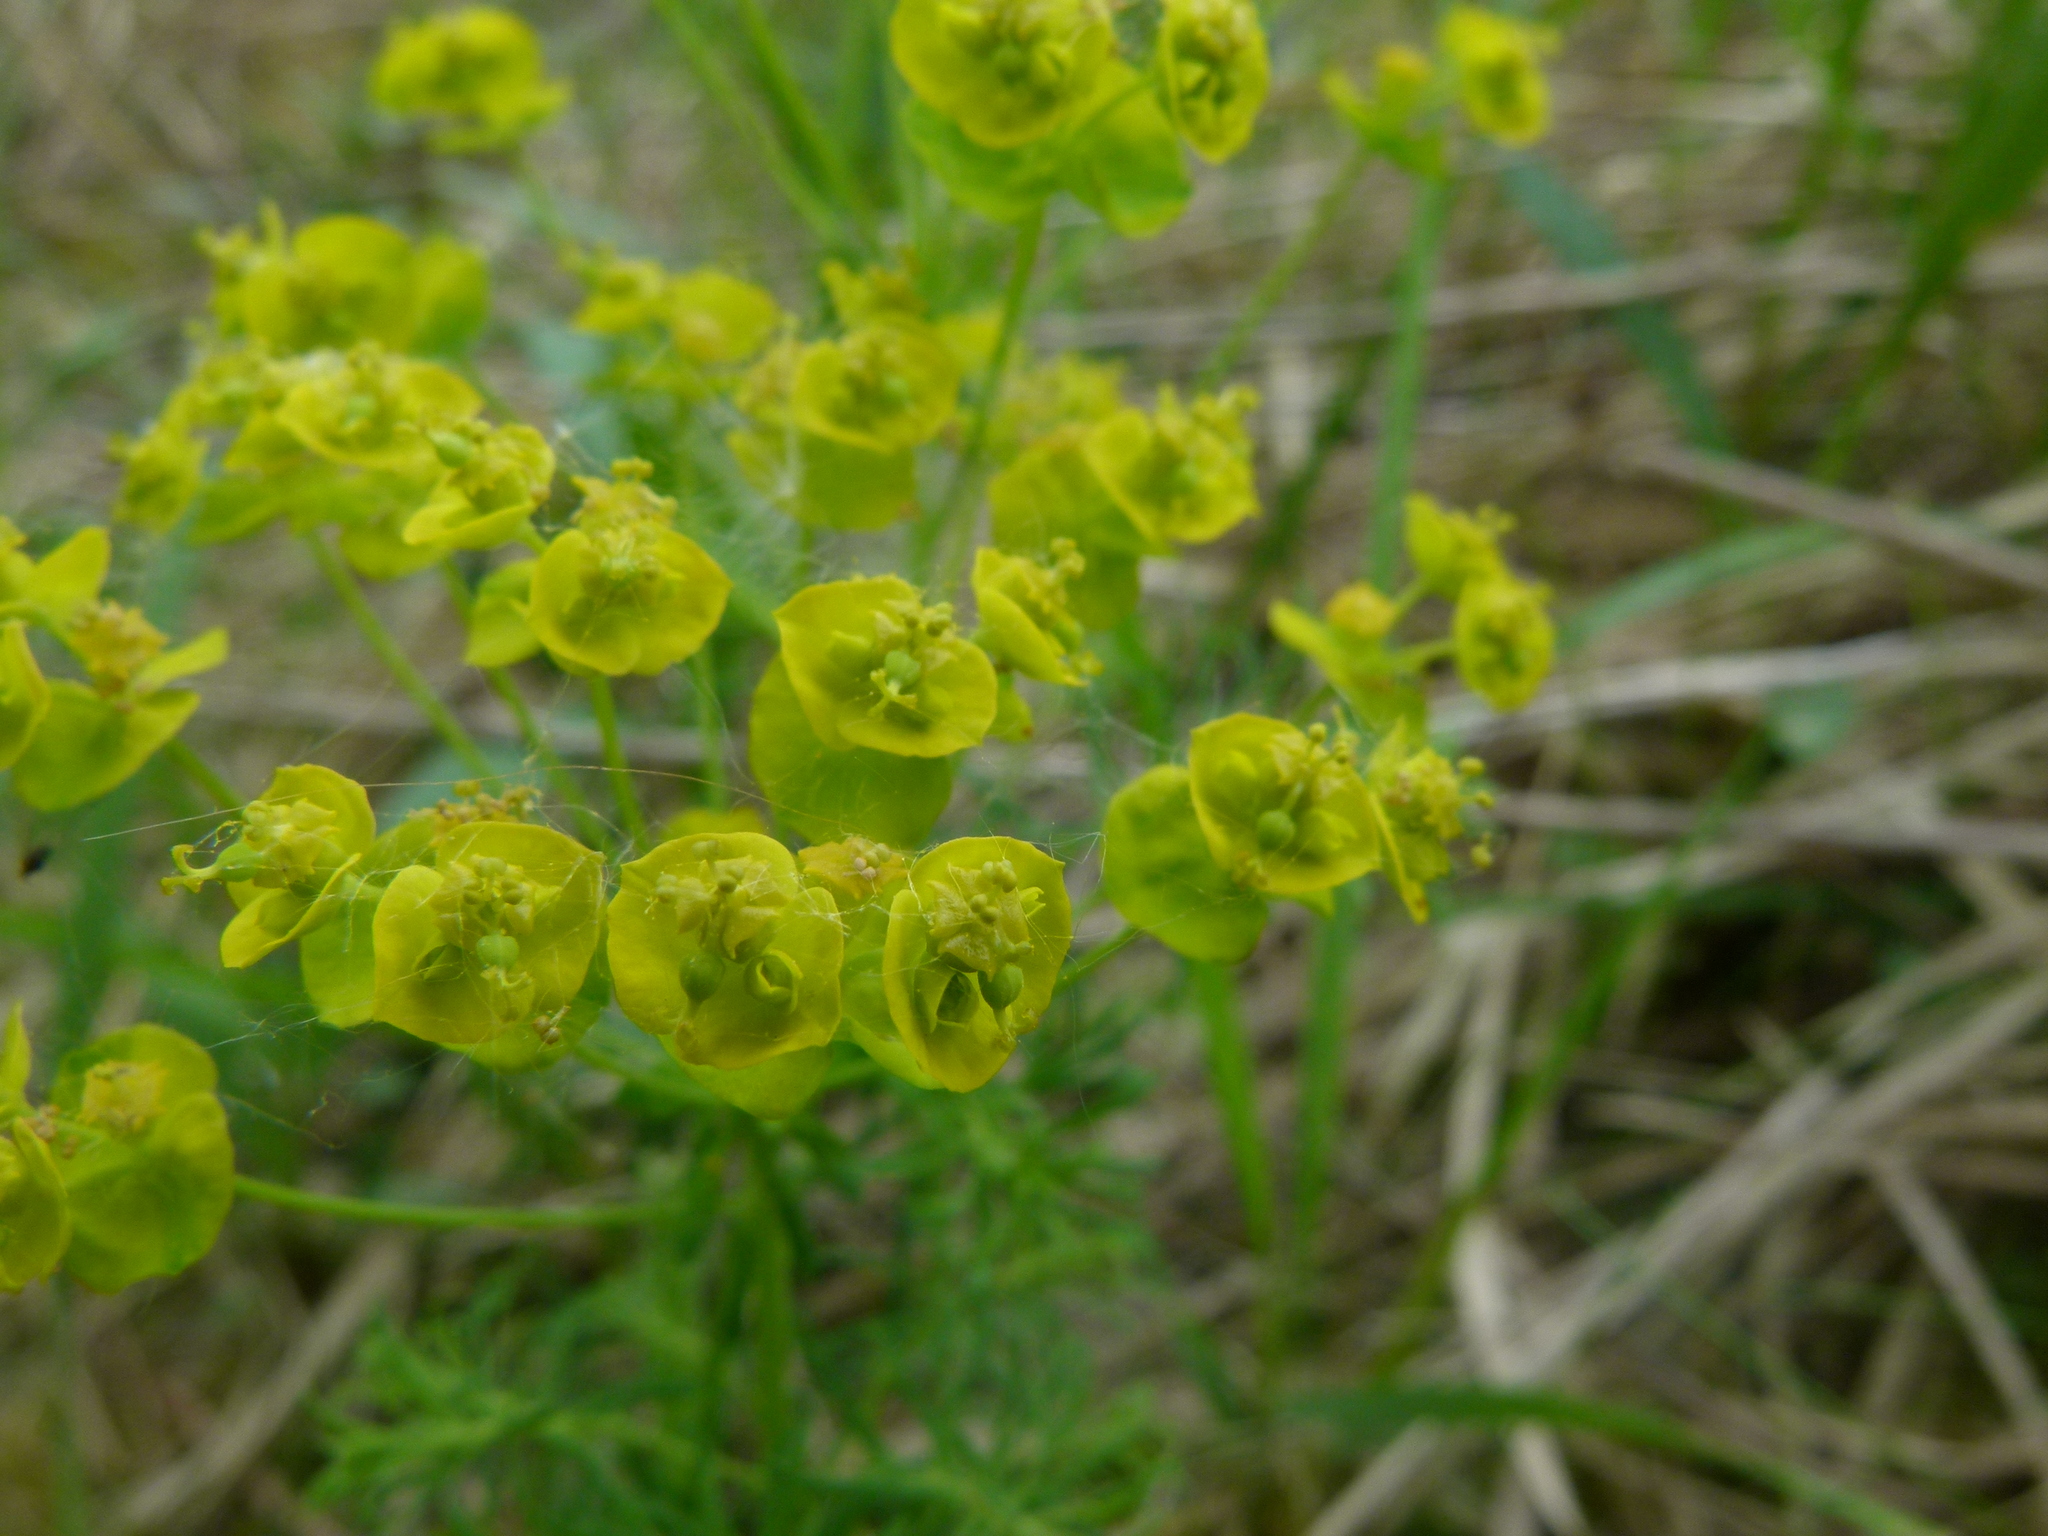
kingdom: Plantae
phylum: Tracheophyta
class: Magnoliopsida
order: Malpighiales
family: Euphorbiaceae
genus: Euphorbia
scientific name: Euphorbia cyparissias
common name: Cypress spurge
